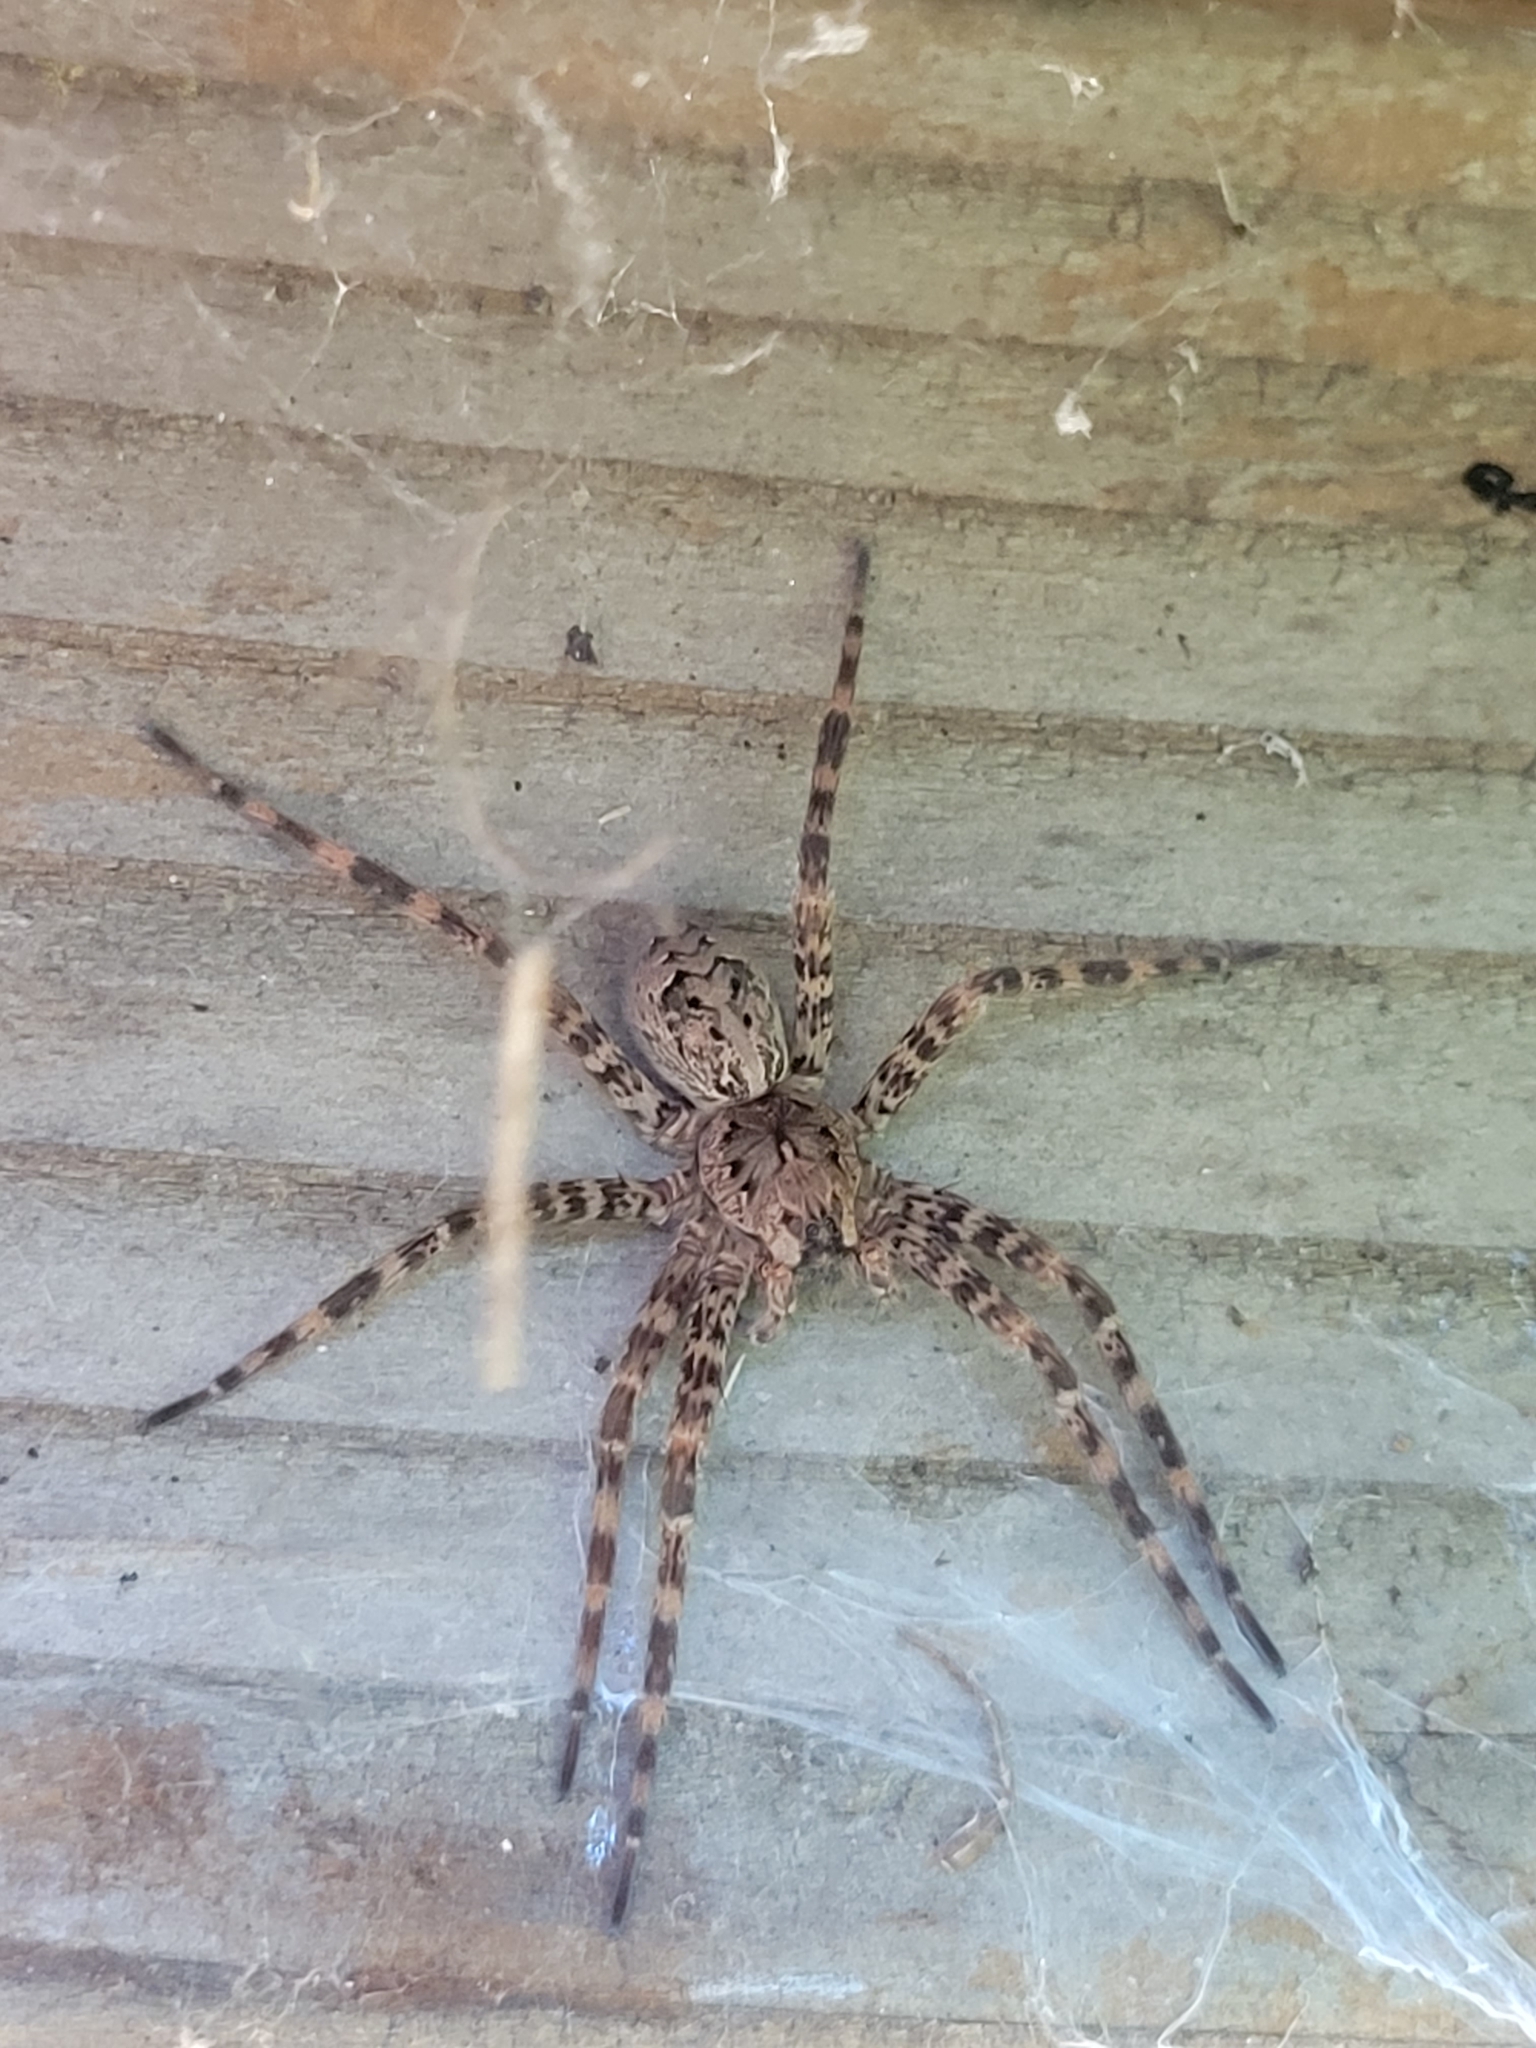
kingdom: Animalia
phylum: Arthropoda
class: Arachnida
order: Araneae
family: Pisauridae
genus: Dolomedes
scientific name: Dolomedes tenebrosus
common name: Dark fishing spider
